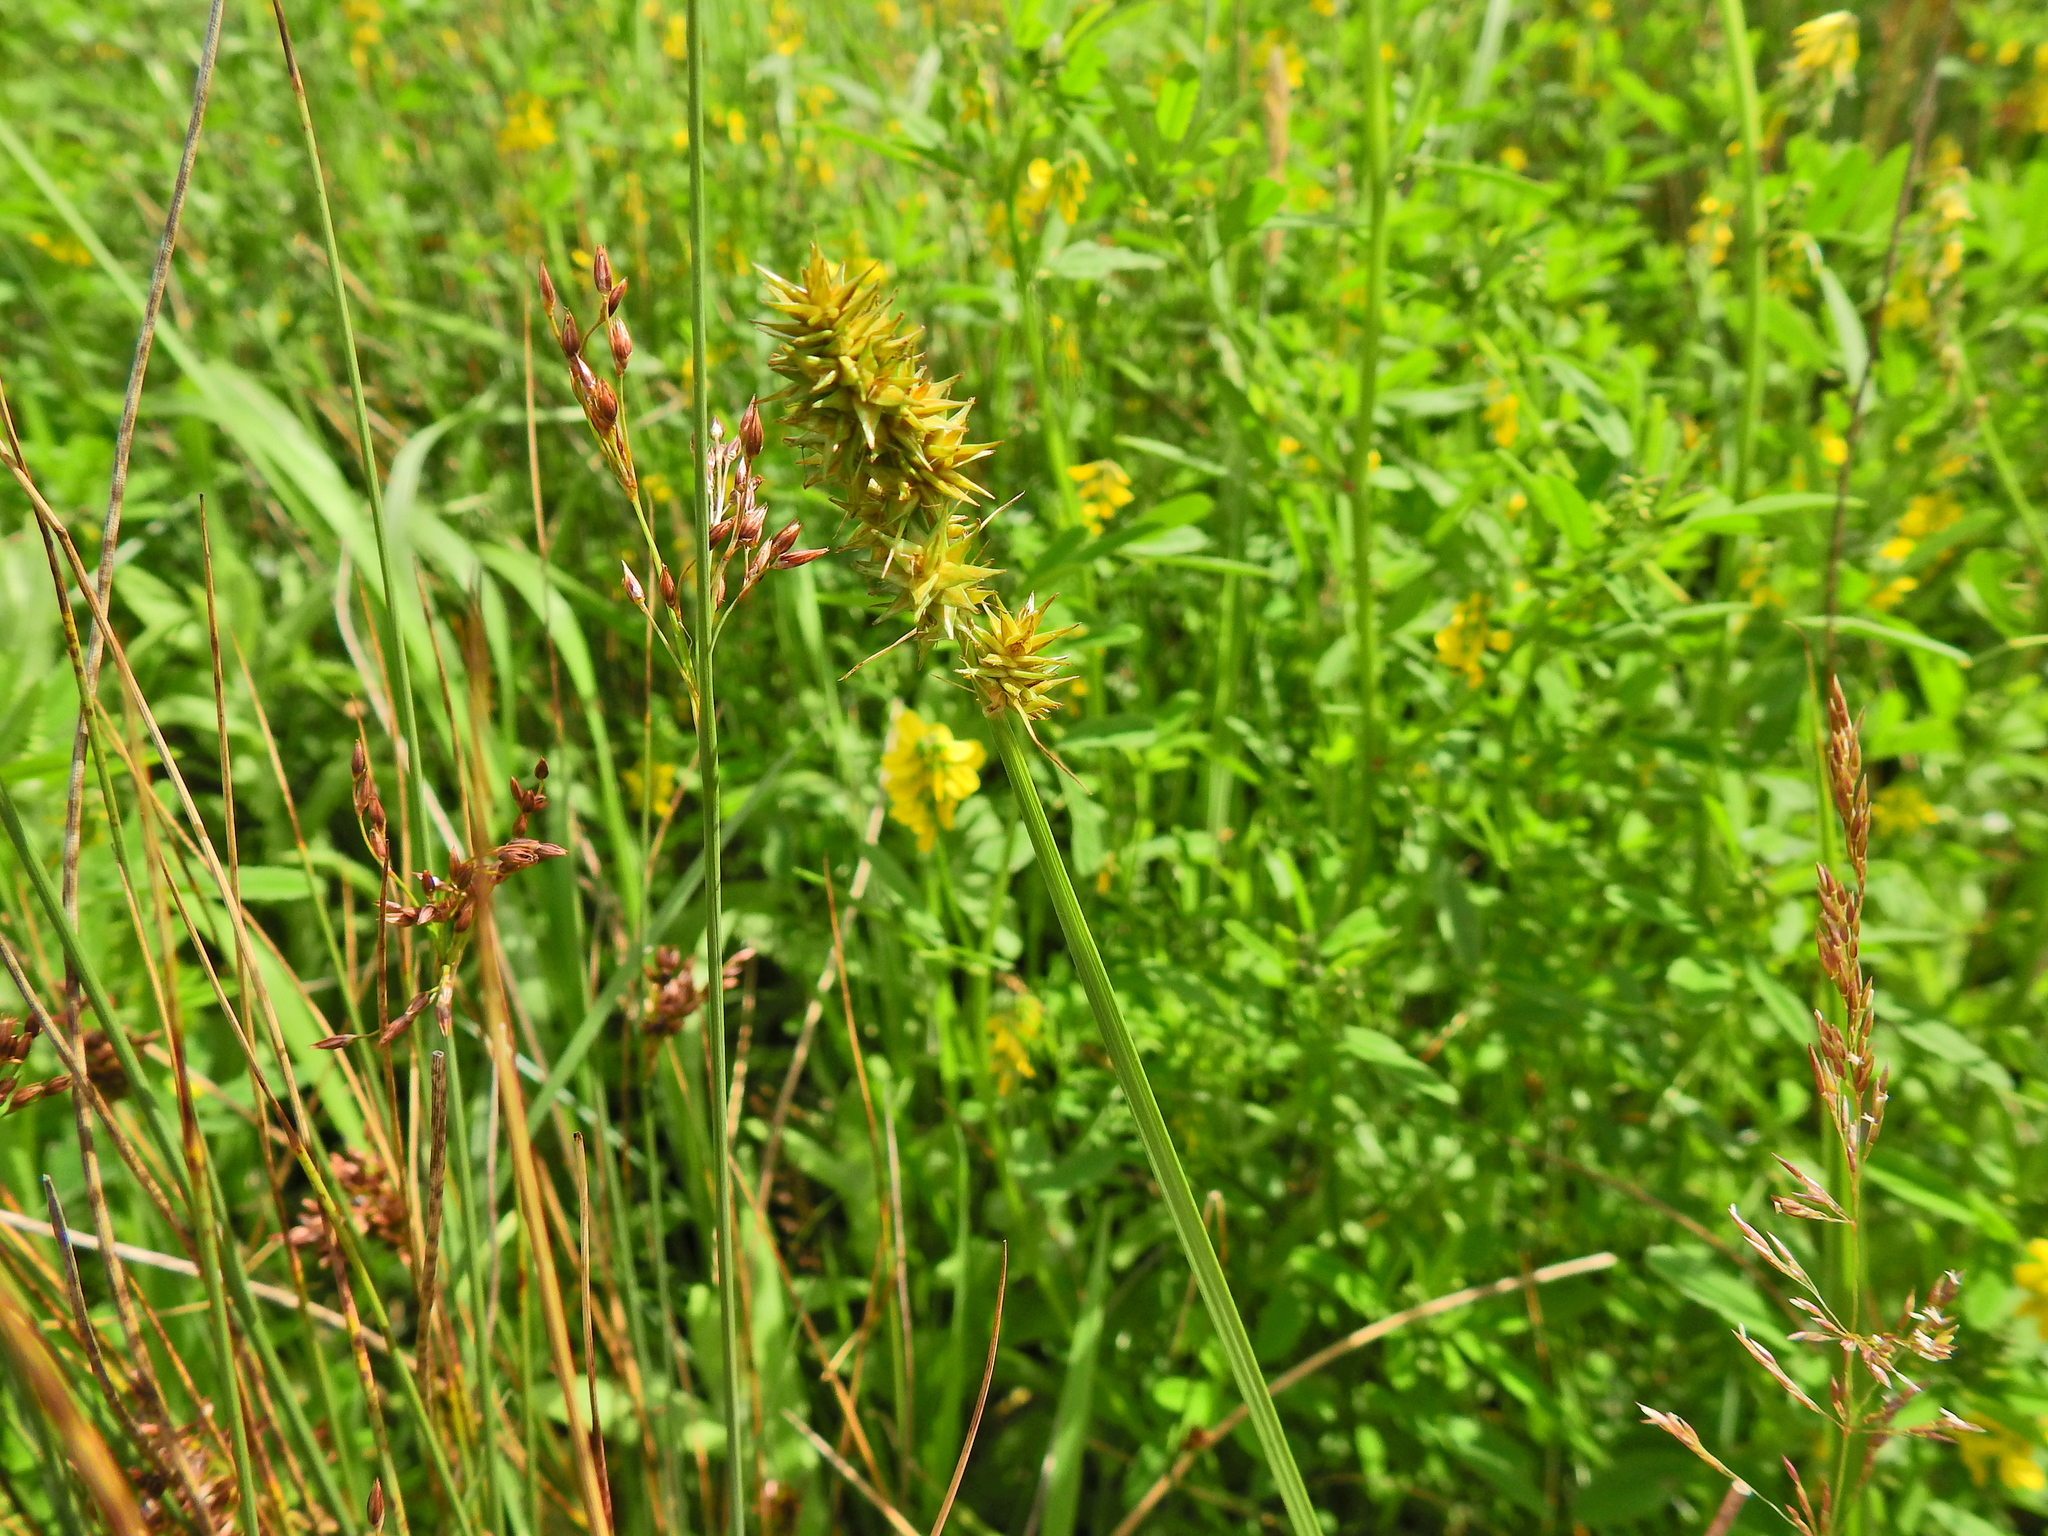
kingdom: Plantae
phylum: Tracheophyta
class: Liliopsida
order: Poales
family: Cyperaceae
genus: Carex
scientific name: Carex otrubae
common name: False fox-sedge
